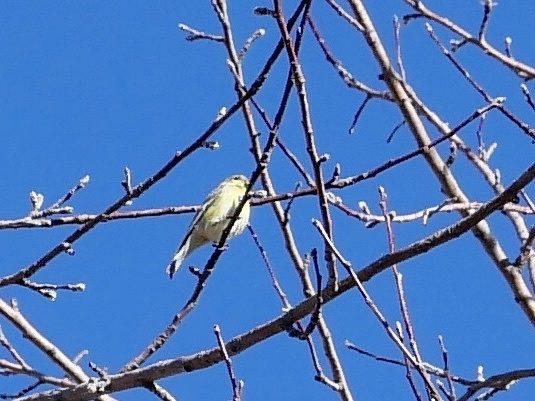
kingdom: Animalia
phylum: Chordata
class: Aves
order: Passeriformes
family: Fringillidae
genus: Spinus
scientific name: Spinus psaltria
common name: Lesser goldfinch
